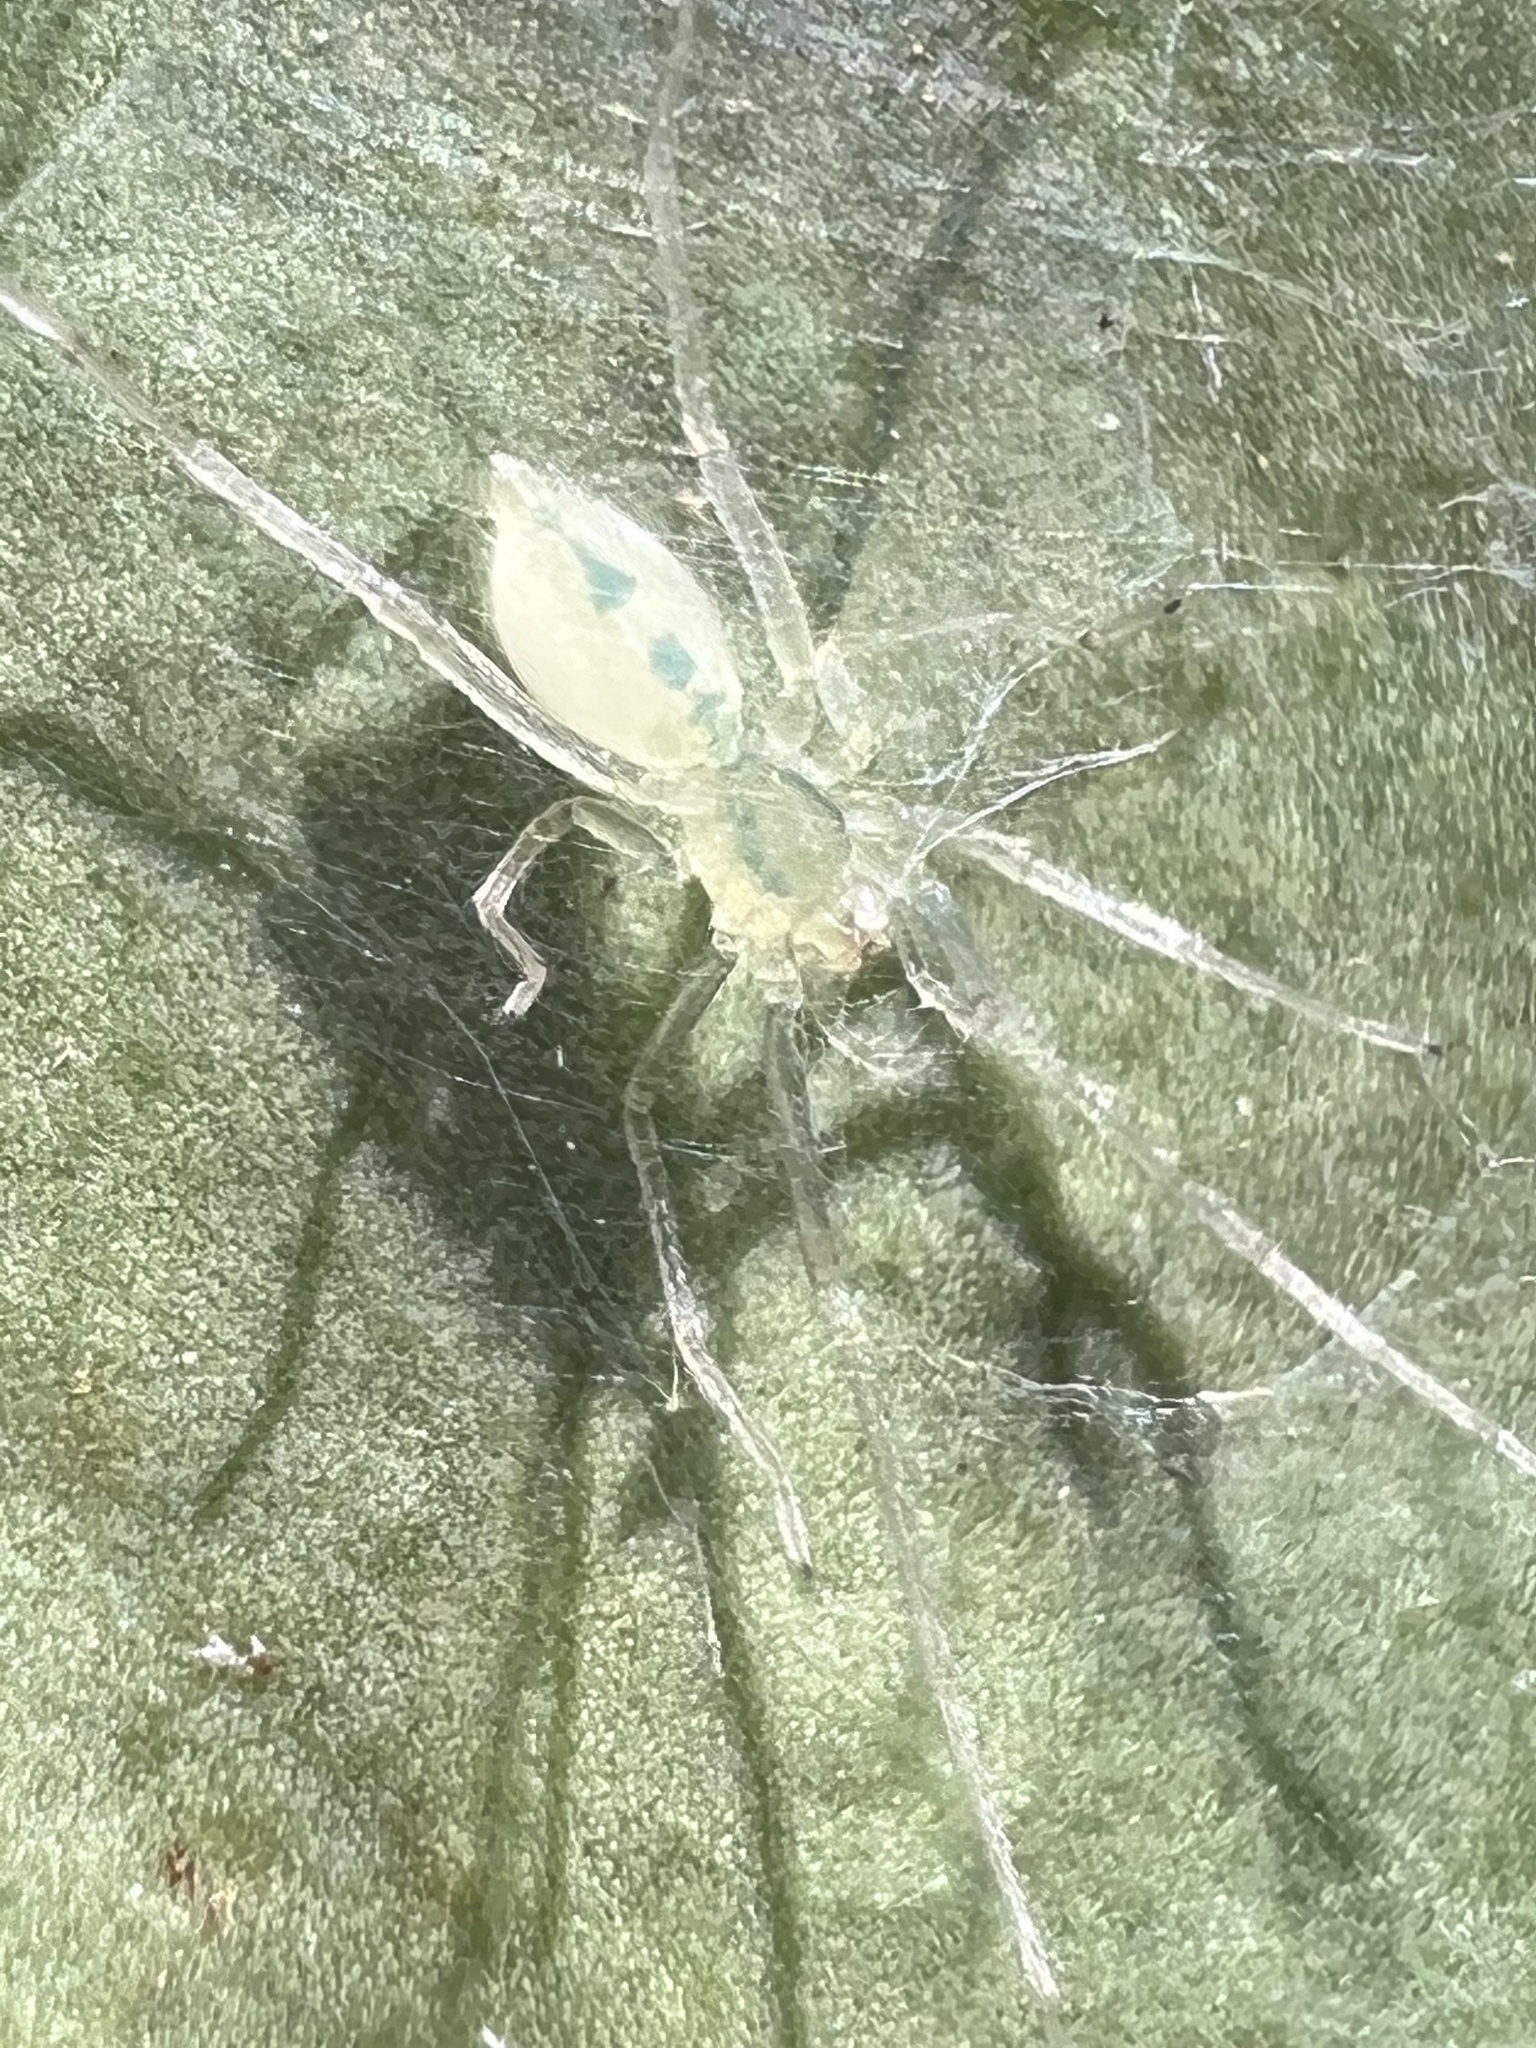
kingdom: Animalia
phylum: Arthropoda
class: Arachnida
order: Araneae
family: Anyphaenidae
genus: Wulfila
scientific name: Wulfila albens
